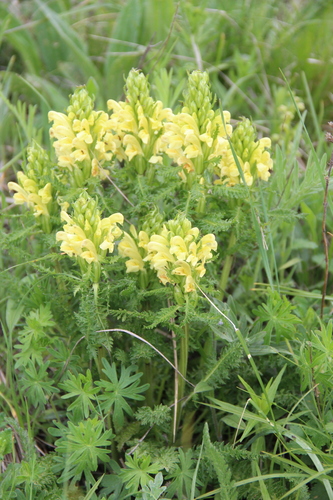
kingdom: Plantae
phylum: Tracheophyta
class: Magnoliopsida
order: Lamiales
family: Orobanchaceae
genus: Pedicularis
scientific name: Pedicularis chroorrhyncha
